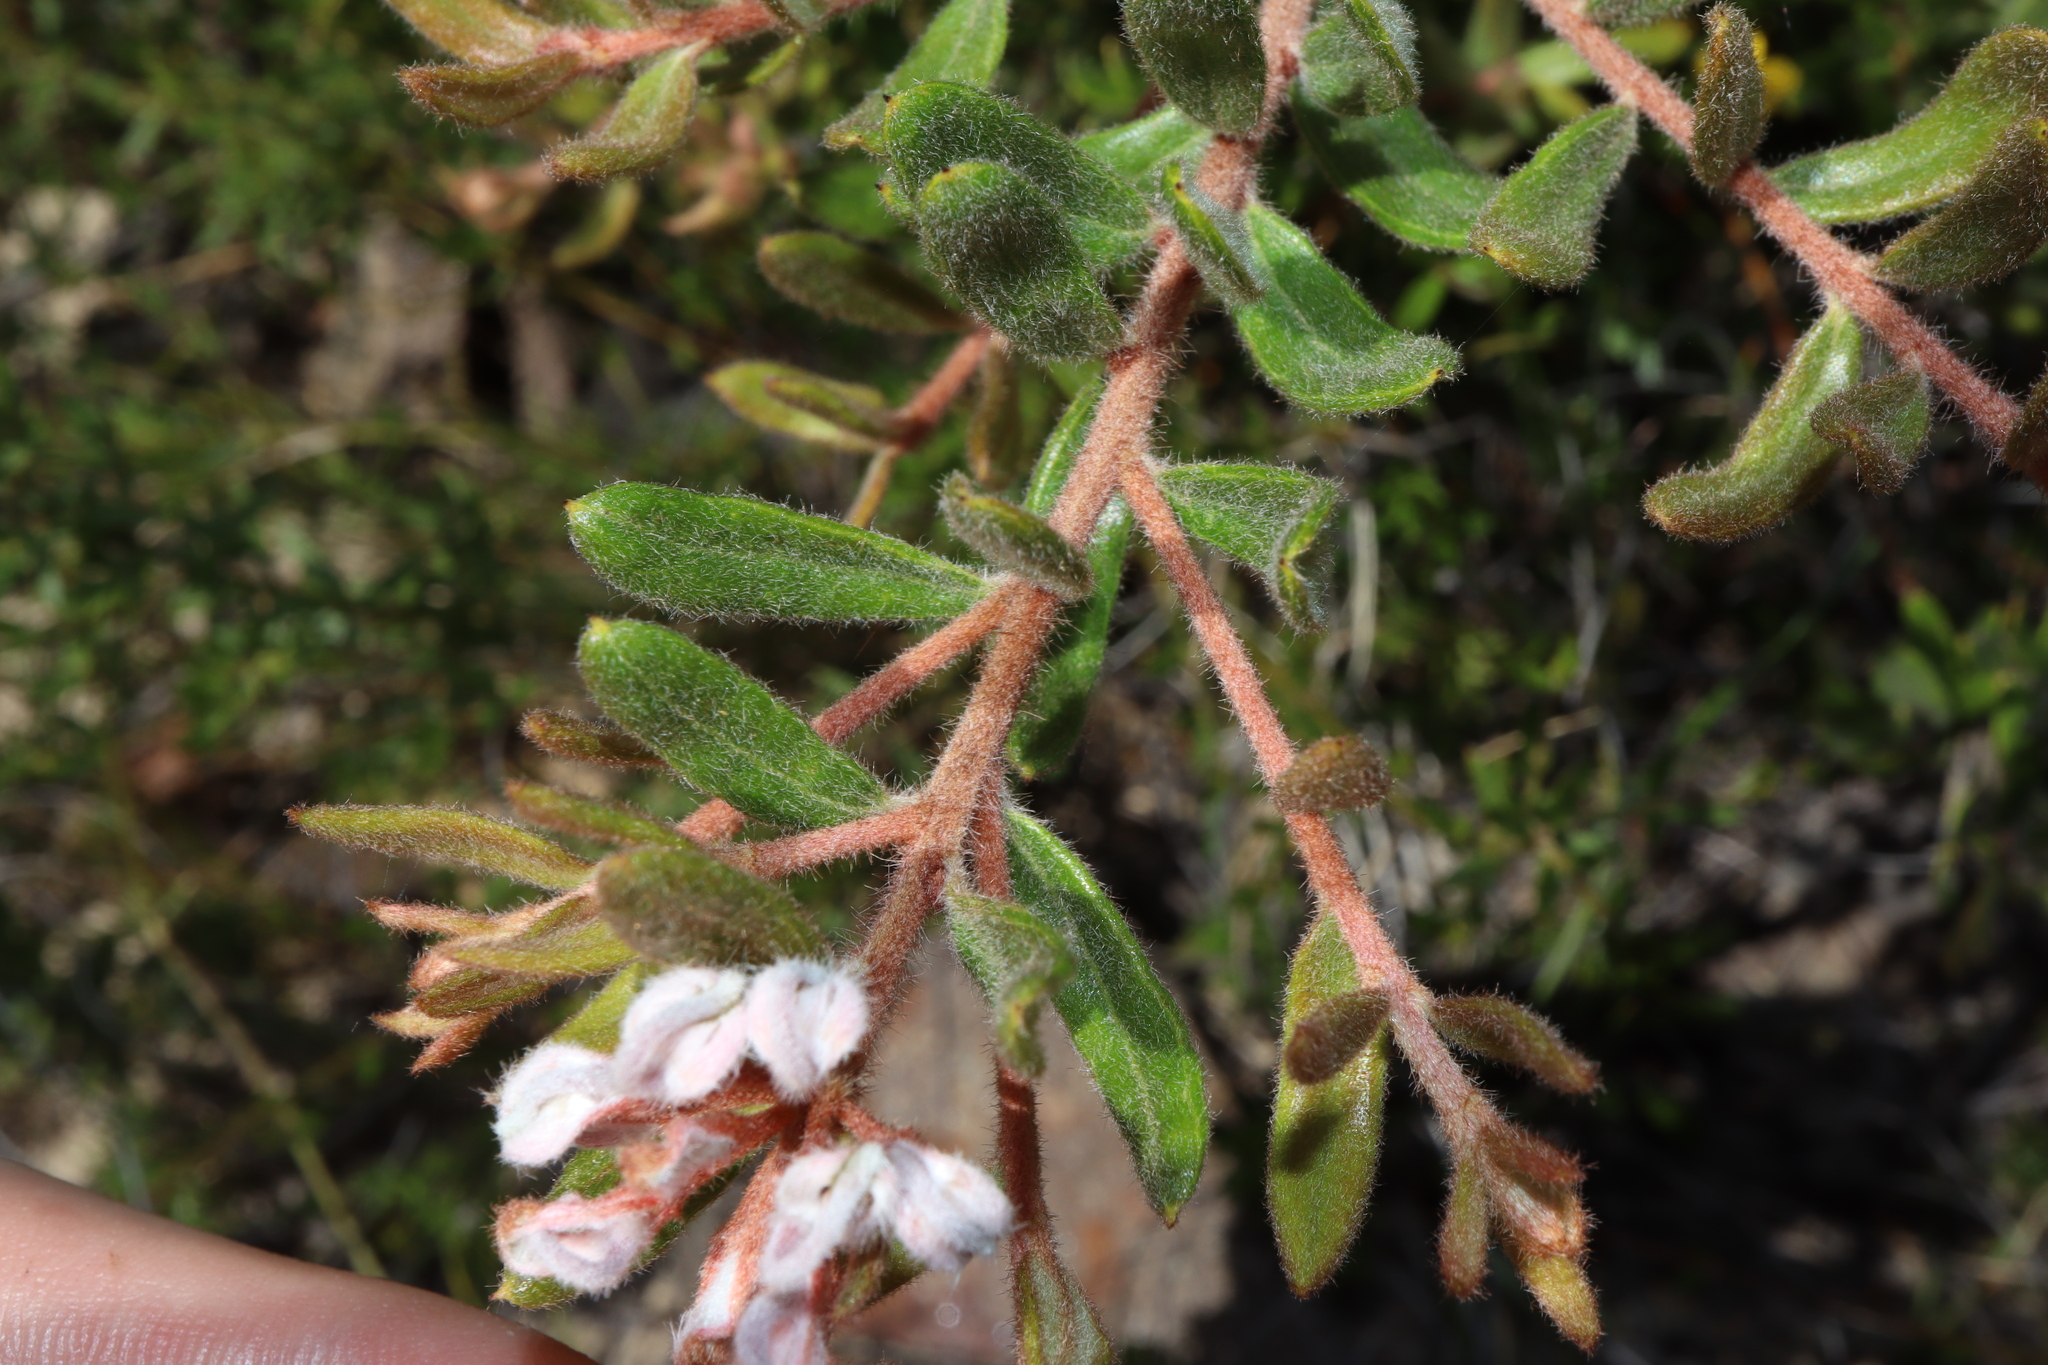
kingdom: Plantae
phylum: Tracheophyta
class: Magnoliopsida
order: Proteales
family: Proteaceae
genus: Grevillea
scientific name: Grevillea phylicoides
